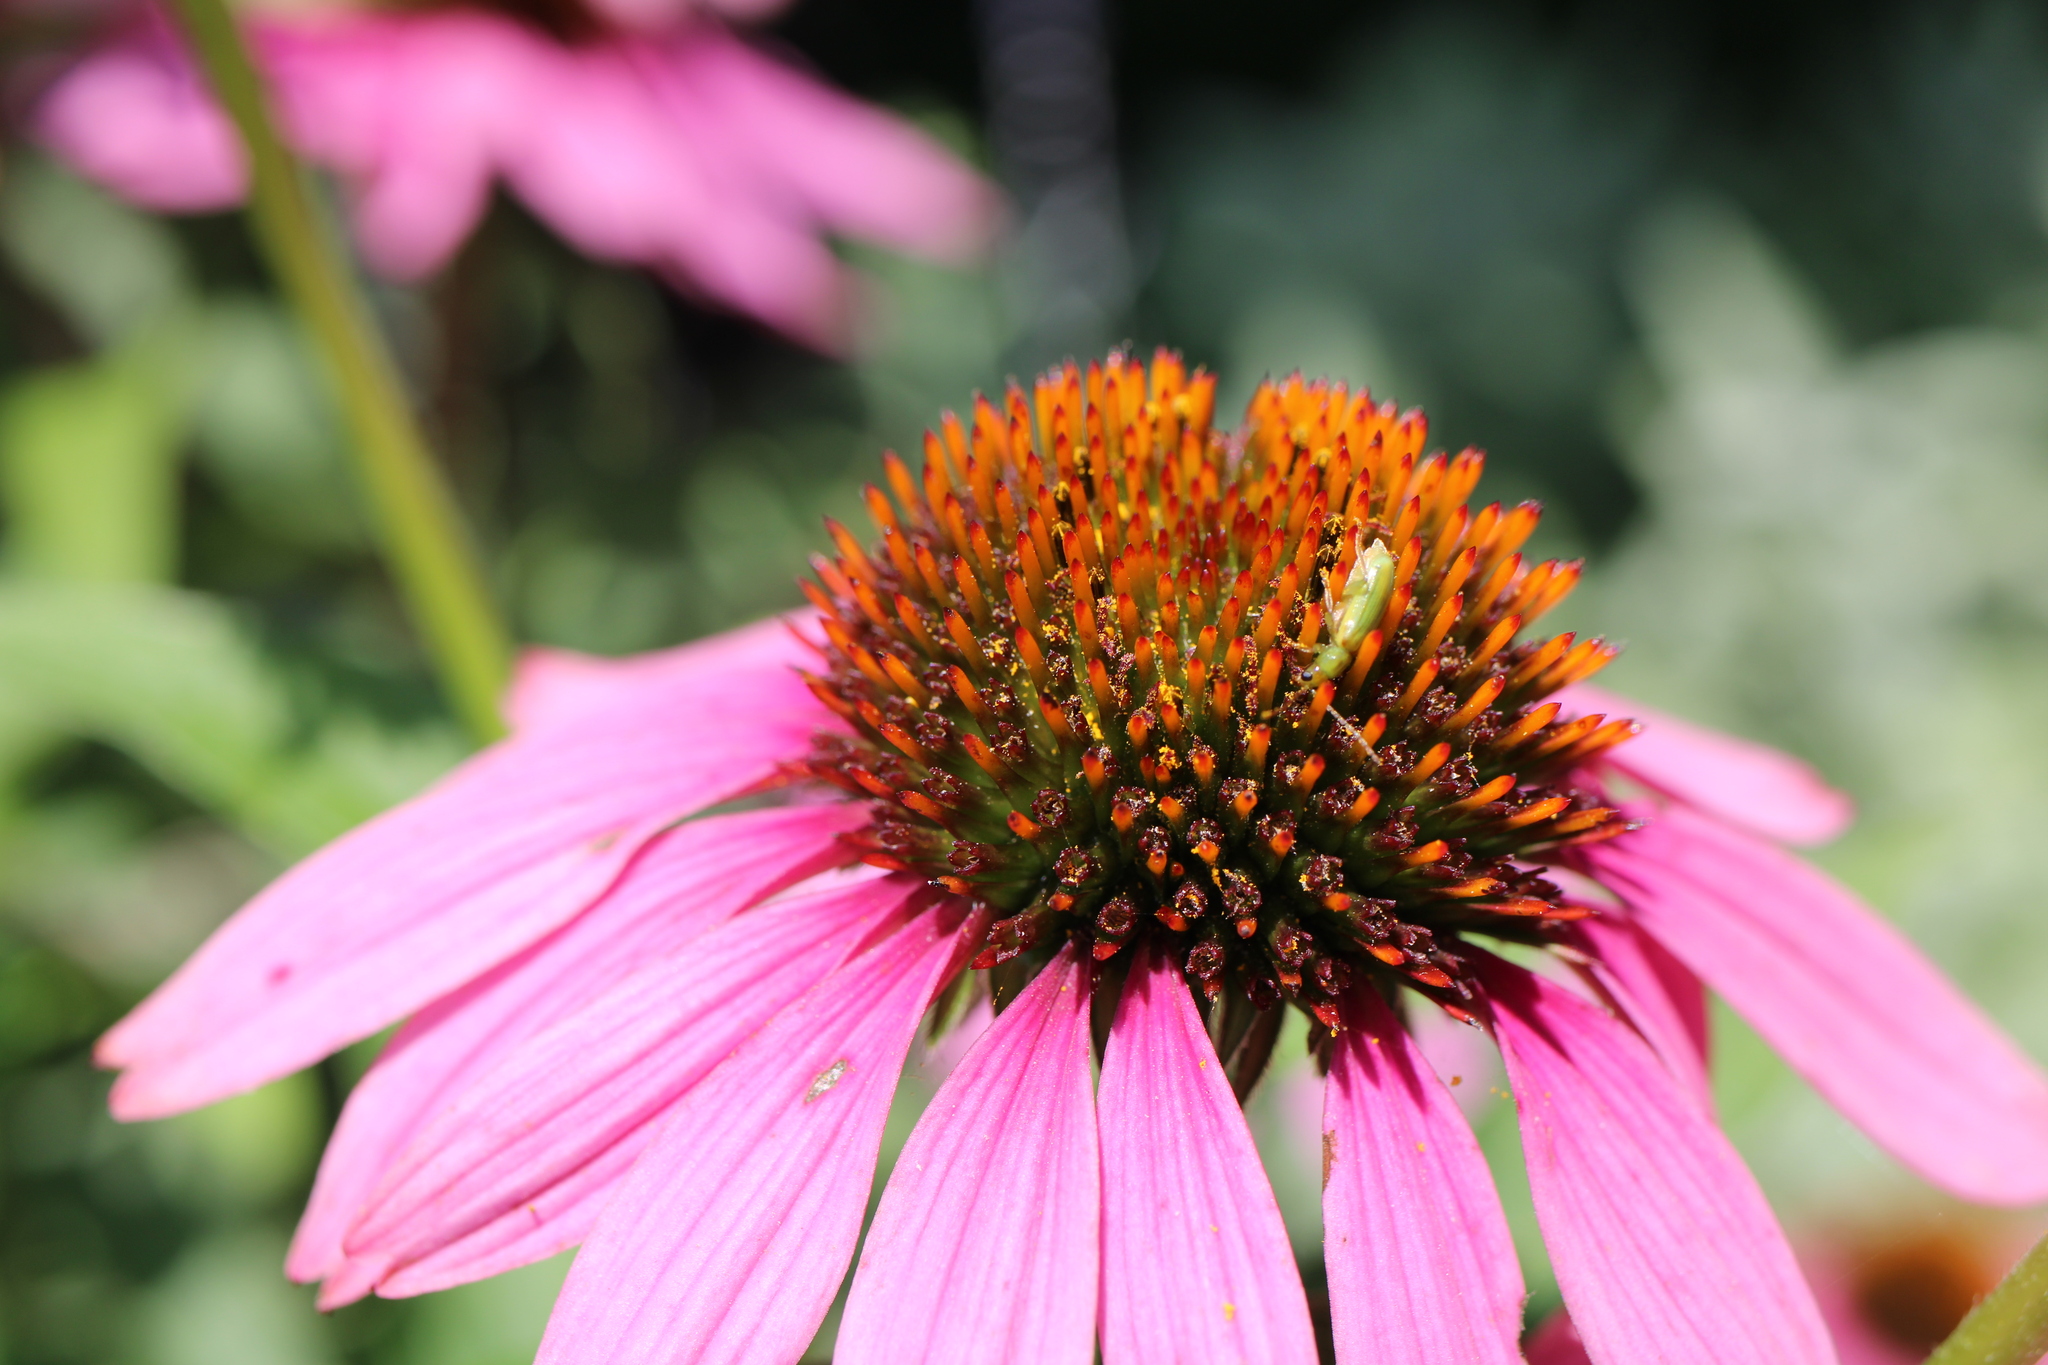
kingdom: Animalia
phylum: Arthropoda
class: Insecta
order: Coleoptera
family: Chrysomelidae
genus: Diabrotica
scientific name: Diabrotica barberi
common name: Northern corn rootworm
